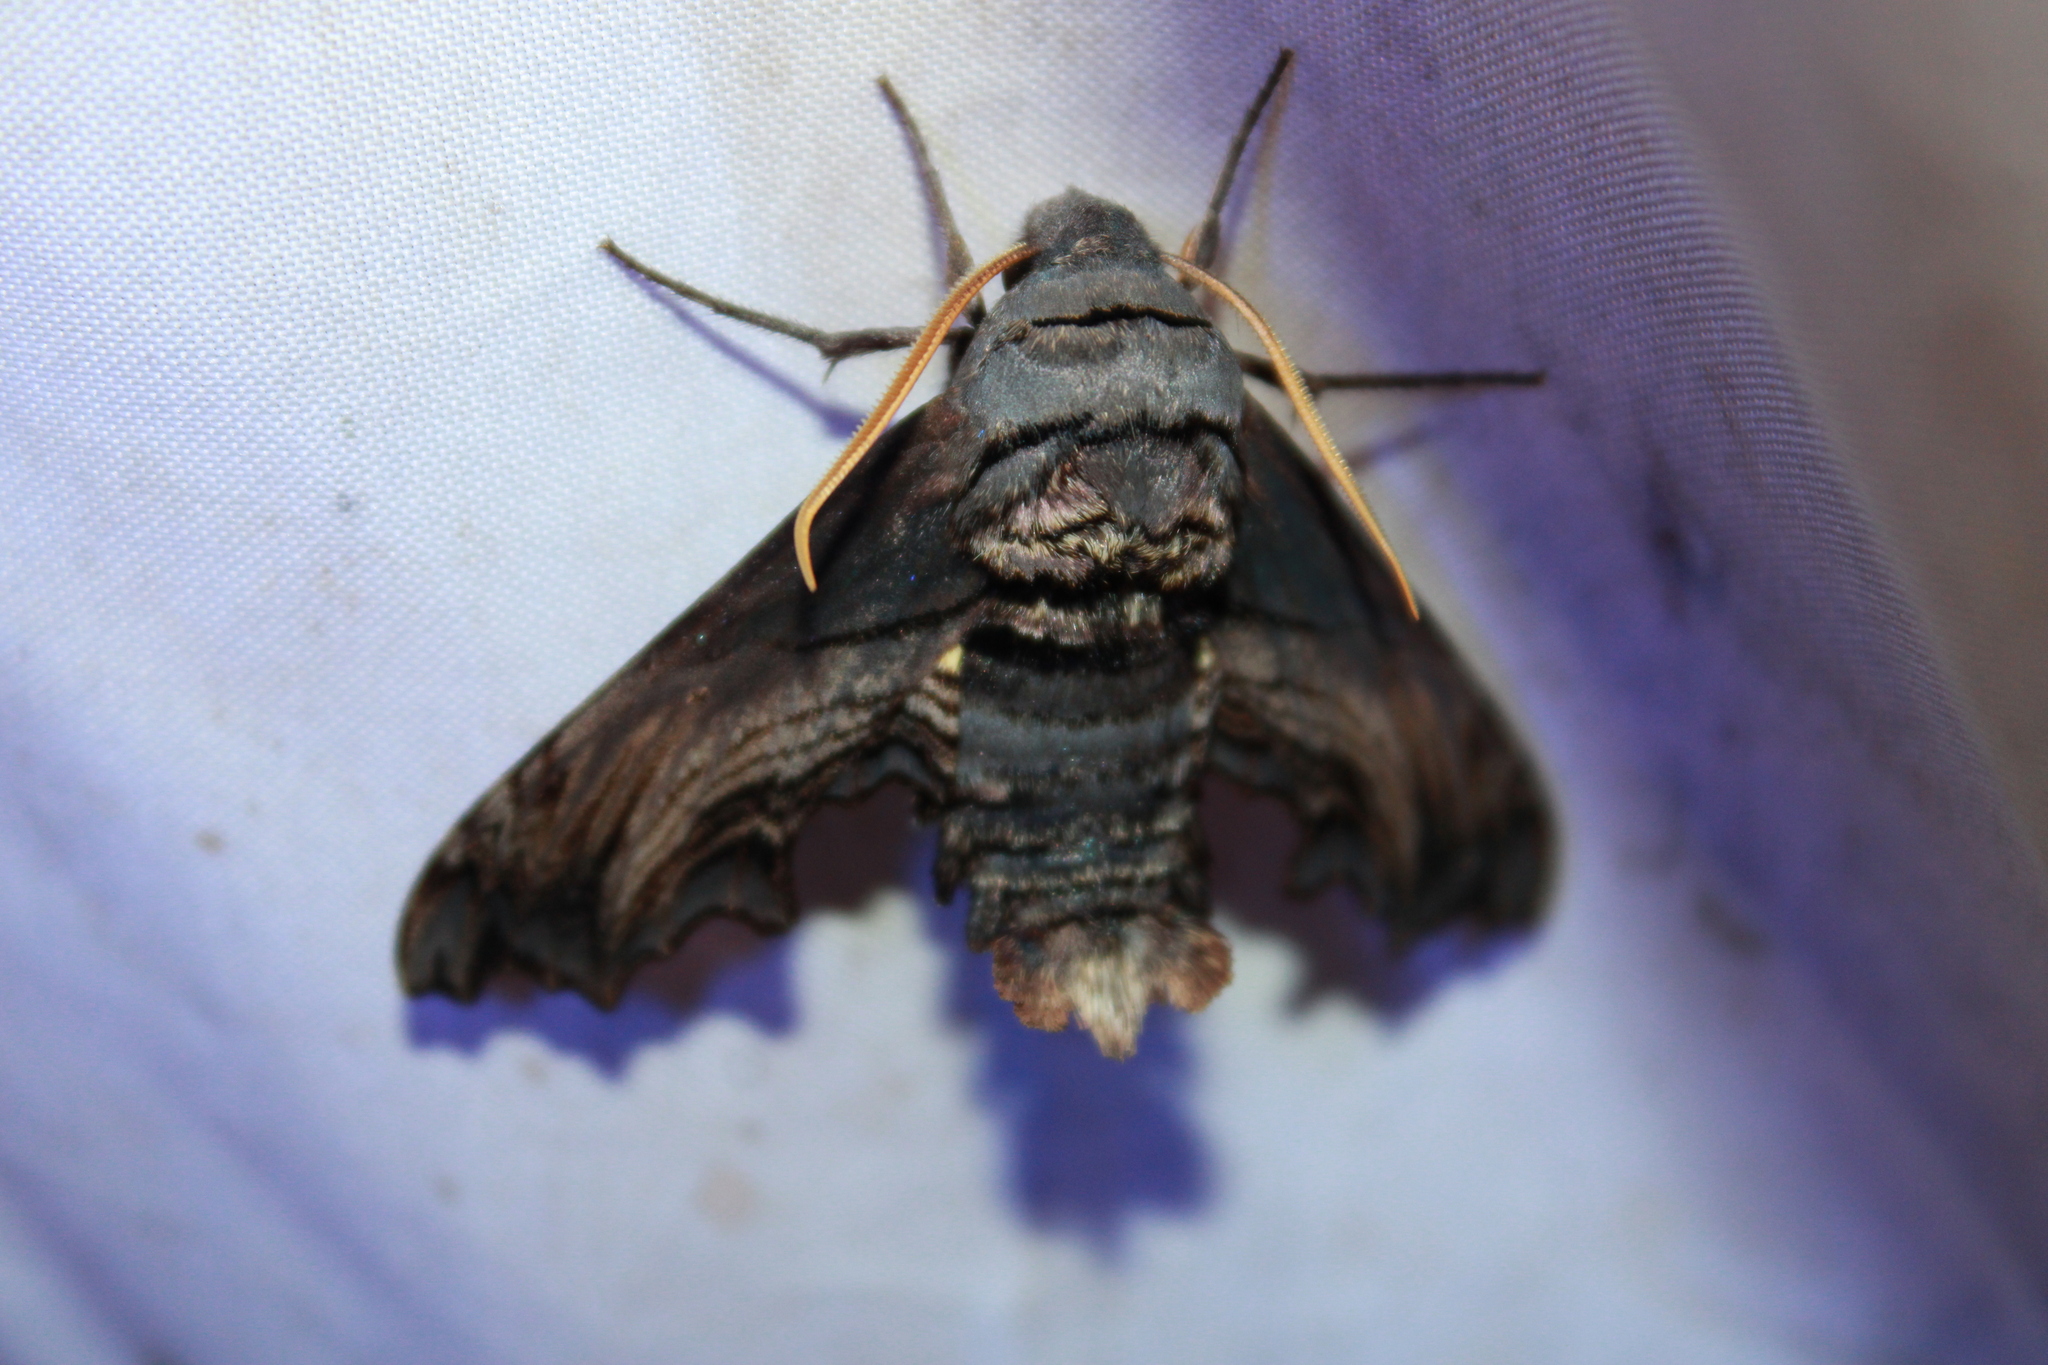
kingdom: Animalia
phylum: Arthropoda
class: Insecta
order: Lepidoptera
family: Sphingidae
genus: Sphecodina
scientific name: Sphecodina abbottii
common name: Abbott's sphinx
